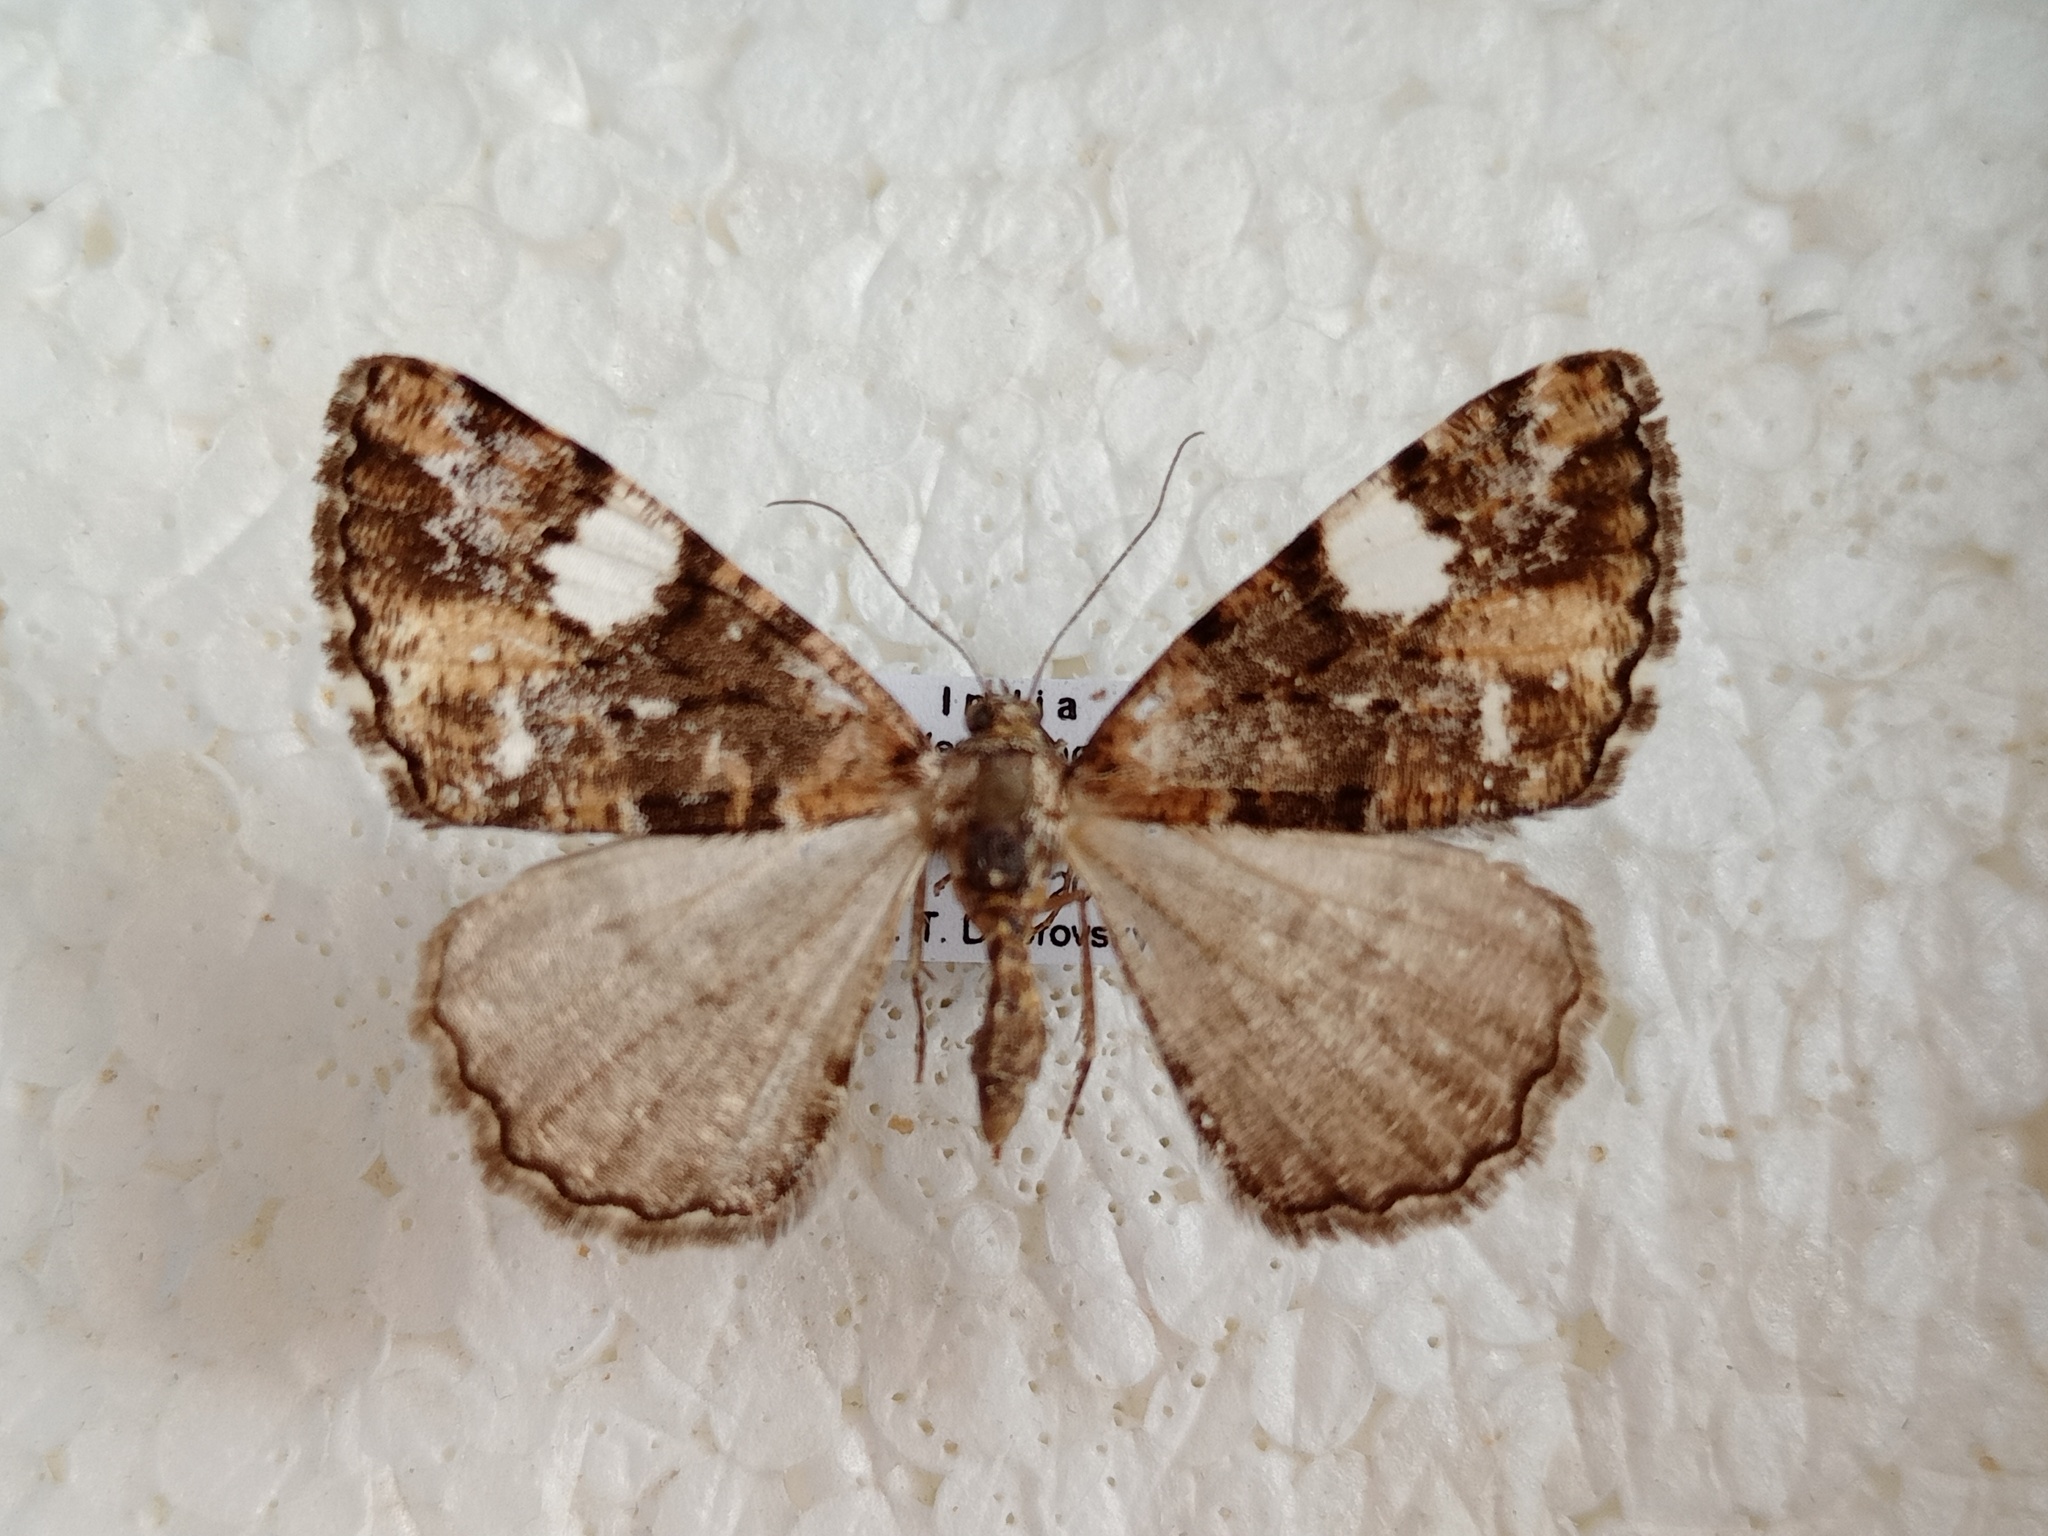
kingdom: Animalia
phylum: Arthropoda
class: Insecta
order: Lepidoptera
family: Geometridae
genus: Alcis
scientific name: Alcis albifera
